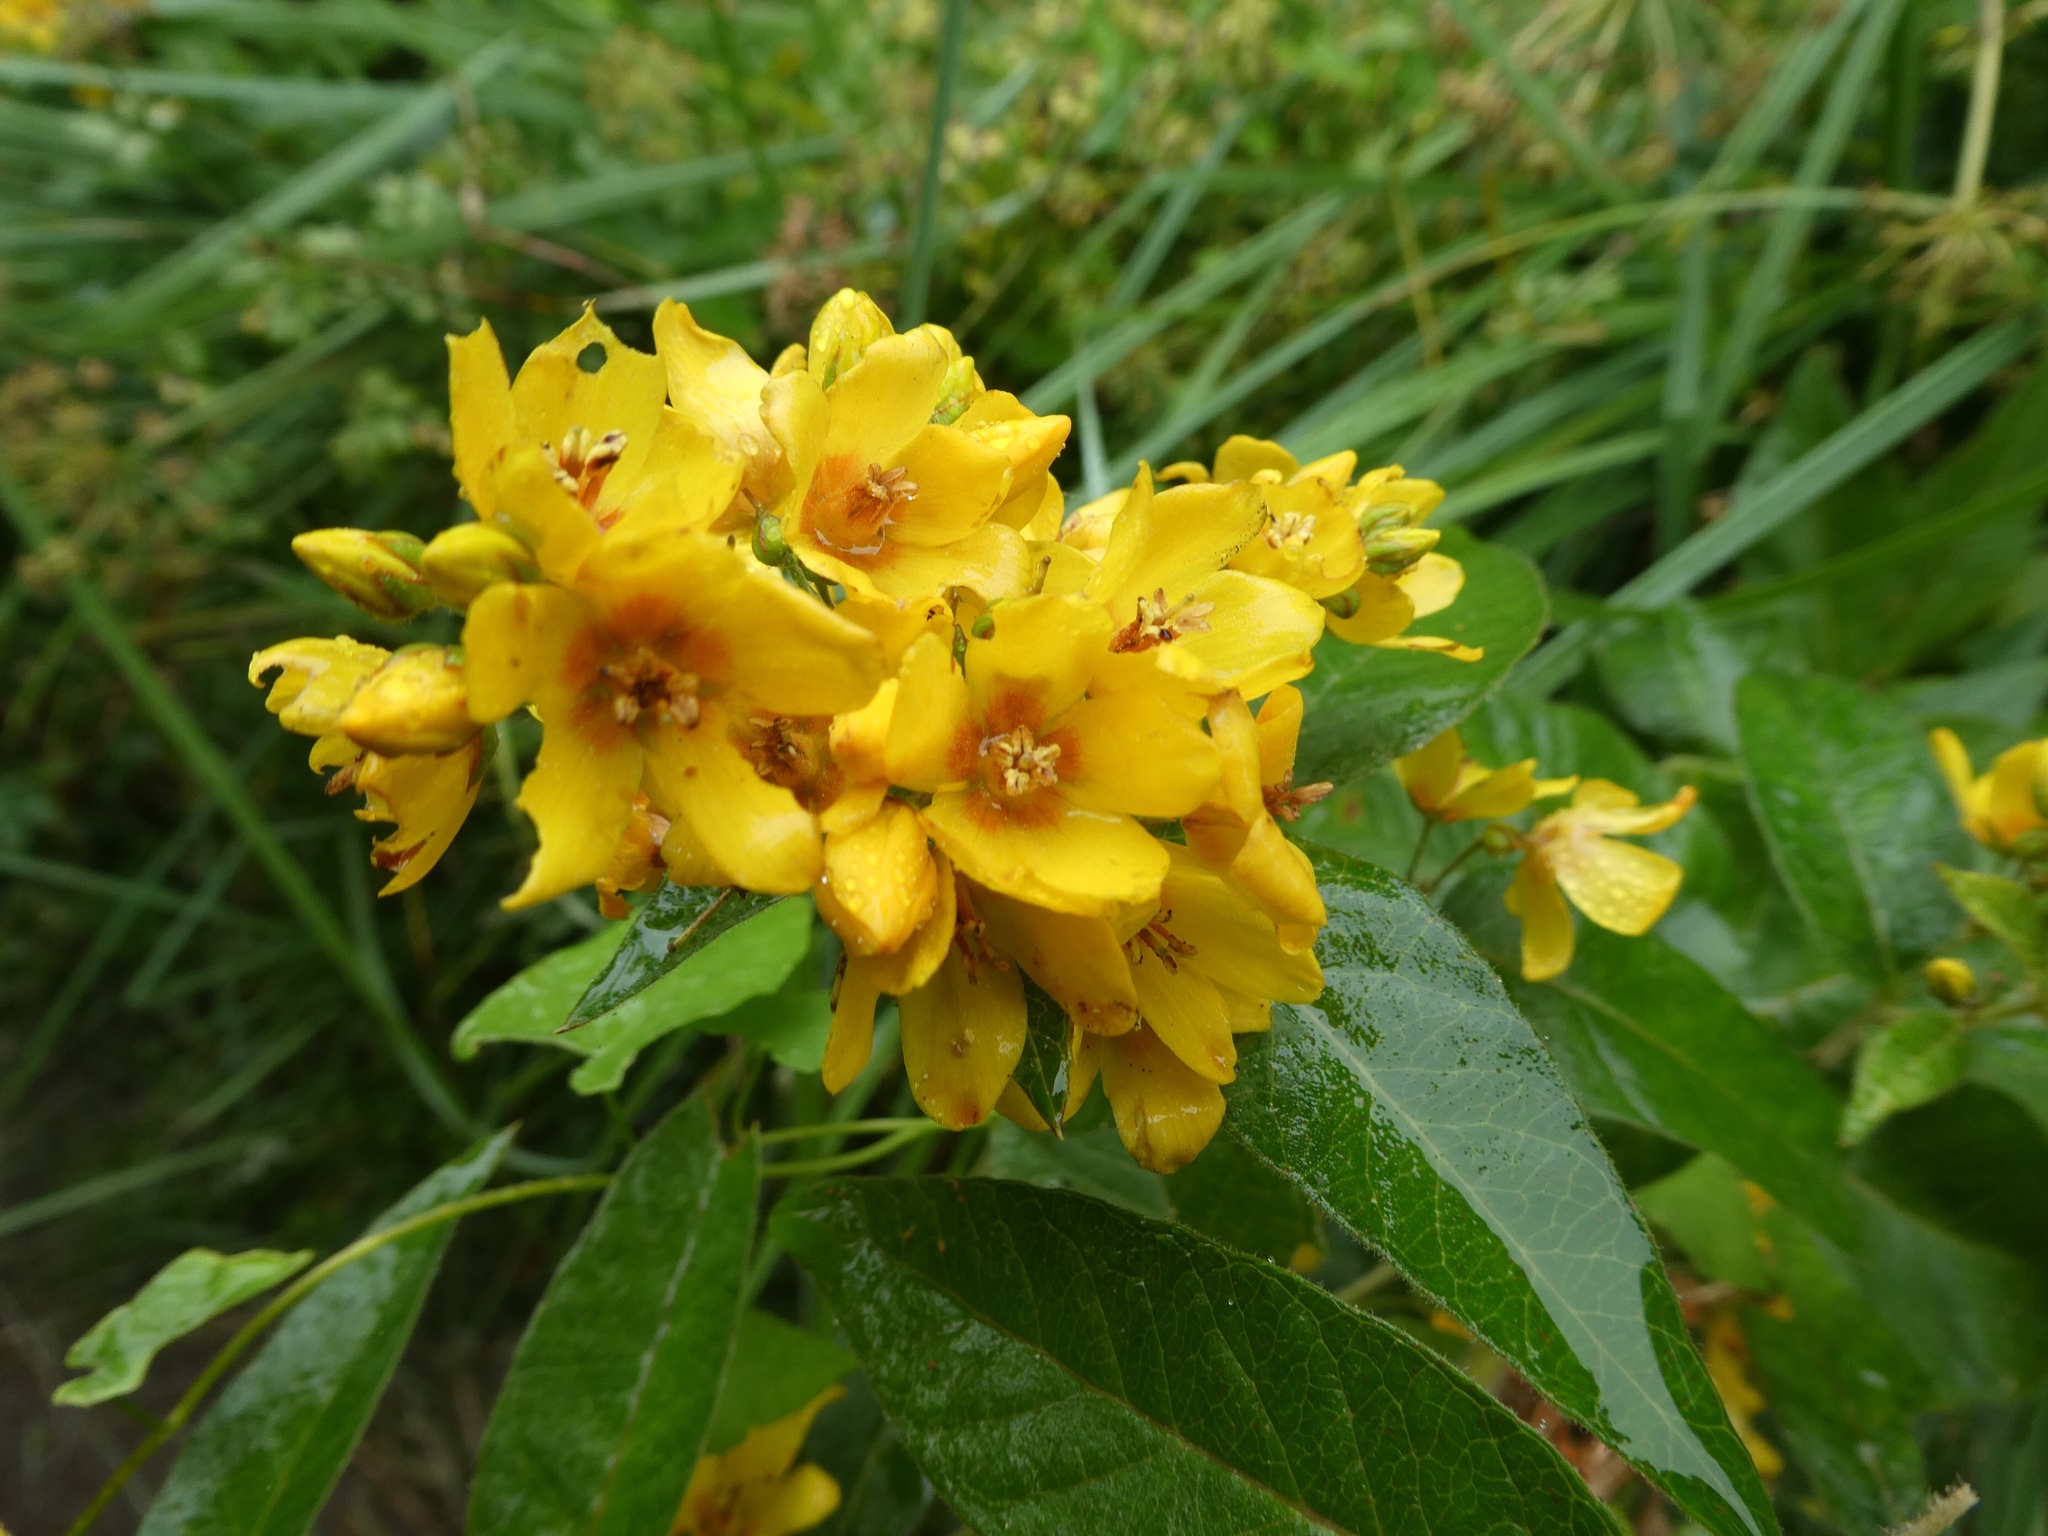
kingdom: Plantae
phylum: Tracheophyta
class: Magnoliopsida
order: Ericales
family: Primulaceae
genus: Lysimachia
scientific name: Lysimachia vulgaris
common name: Yellow loosestrife
